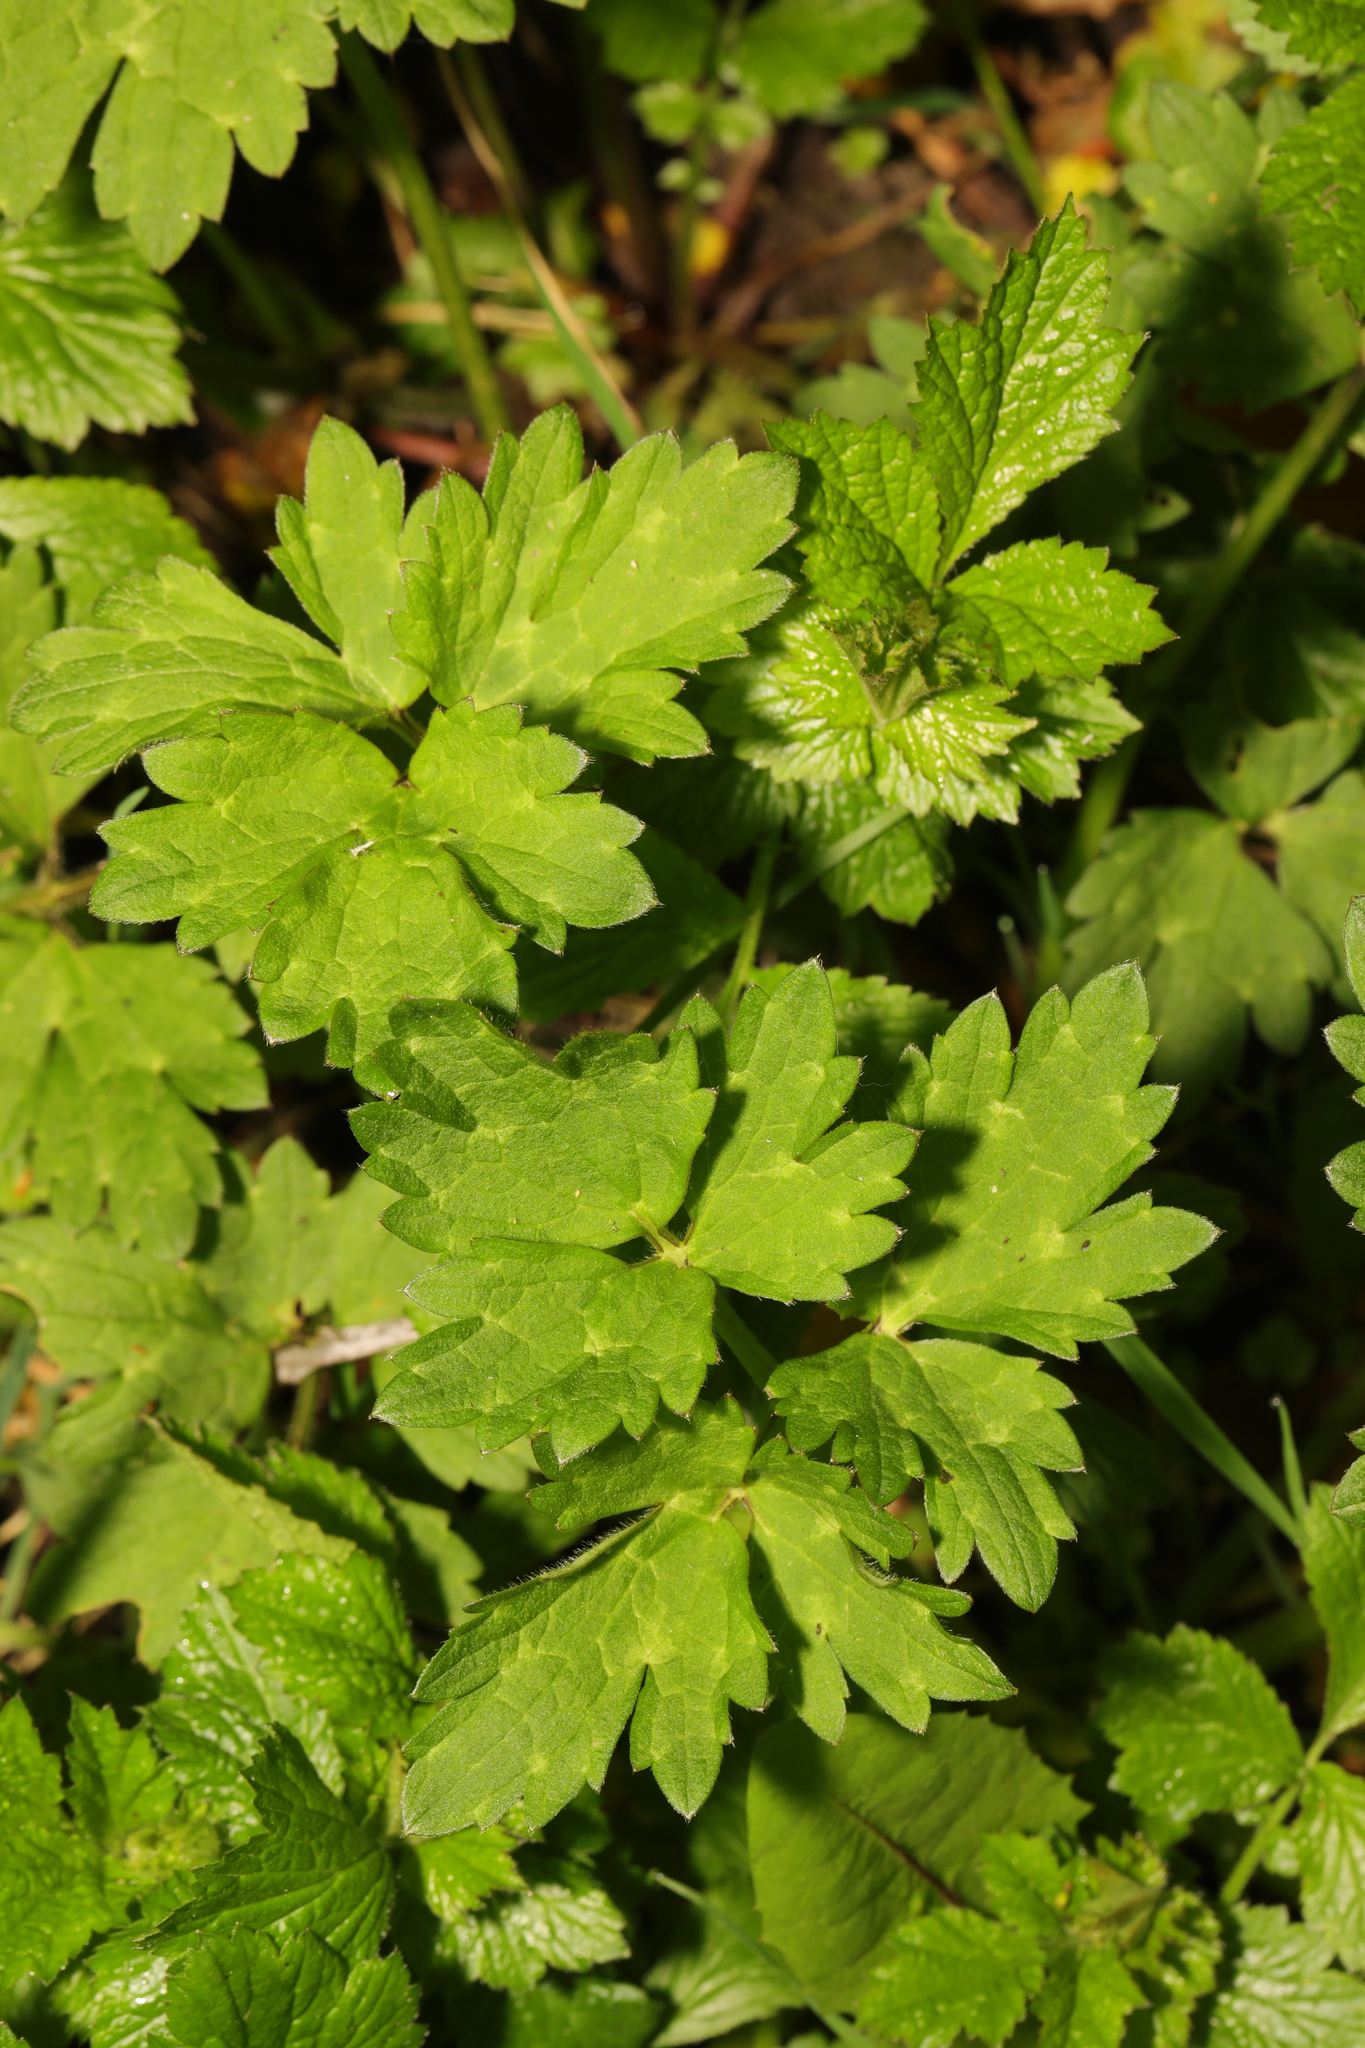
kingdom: Plantae
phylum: Tracheophyta
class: Magnoliopsida
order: Ranunculales
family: Ranunculaceae
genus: Ranunculus
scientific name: Ranunculus repens
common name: Creeping buttercup
